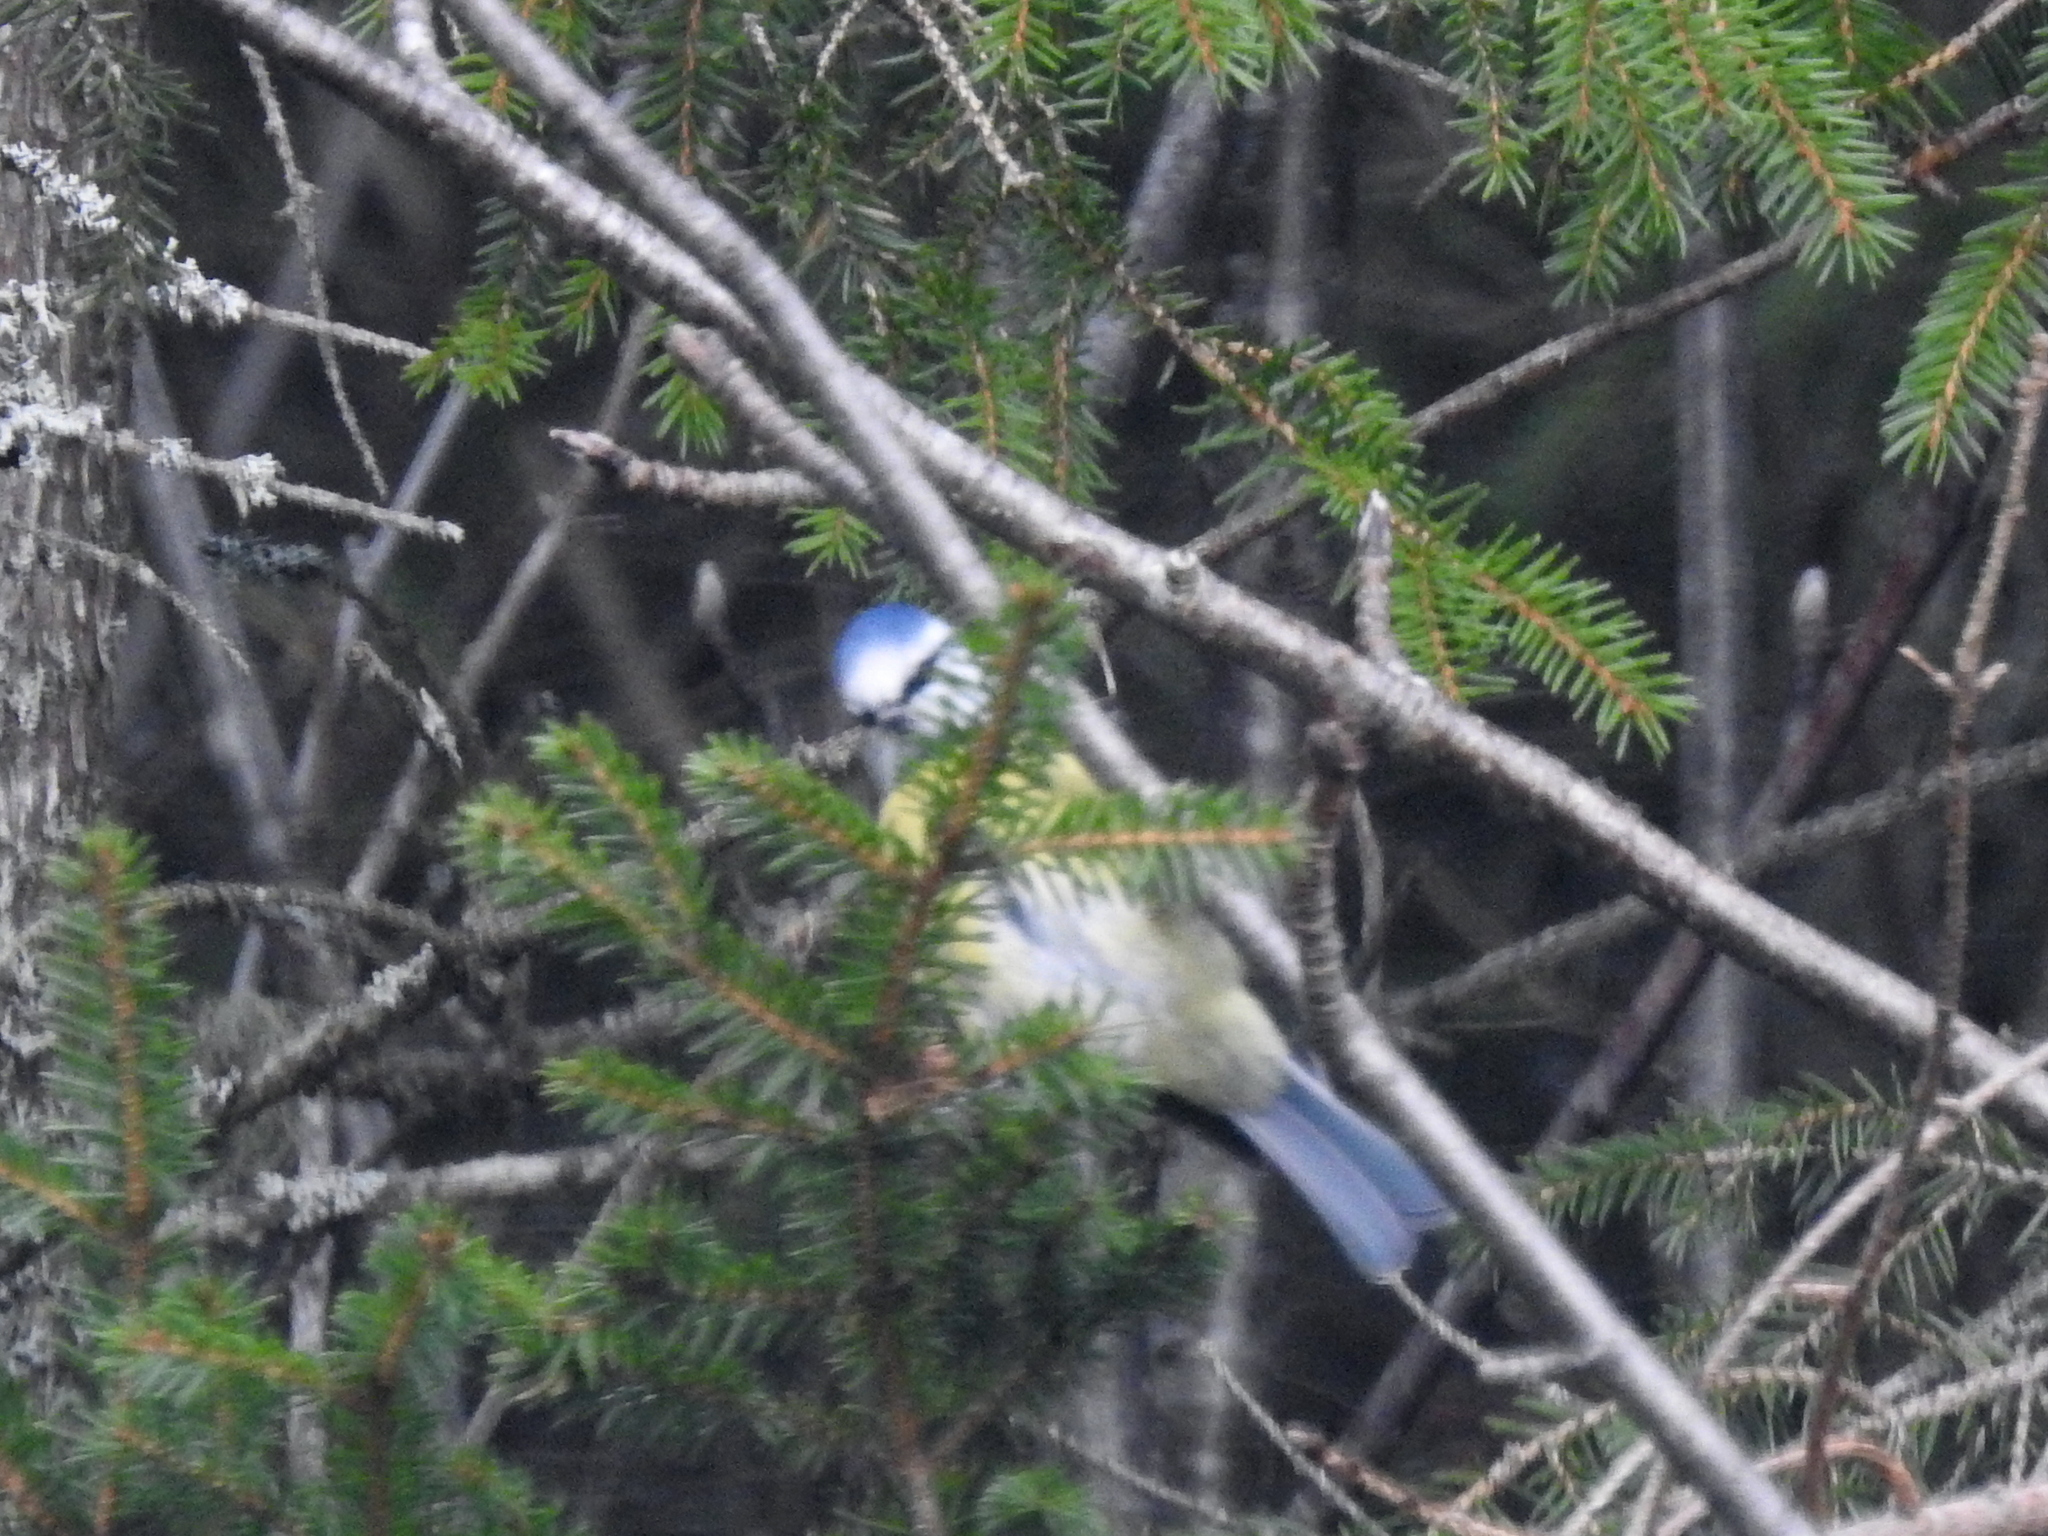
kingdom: Animalia
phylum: Chordata
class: Aves
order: Passeriformes
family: Paridae
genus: Cyanistes
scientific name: Cyanistes caeruleus
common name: Eurasian blue tit
